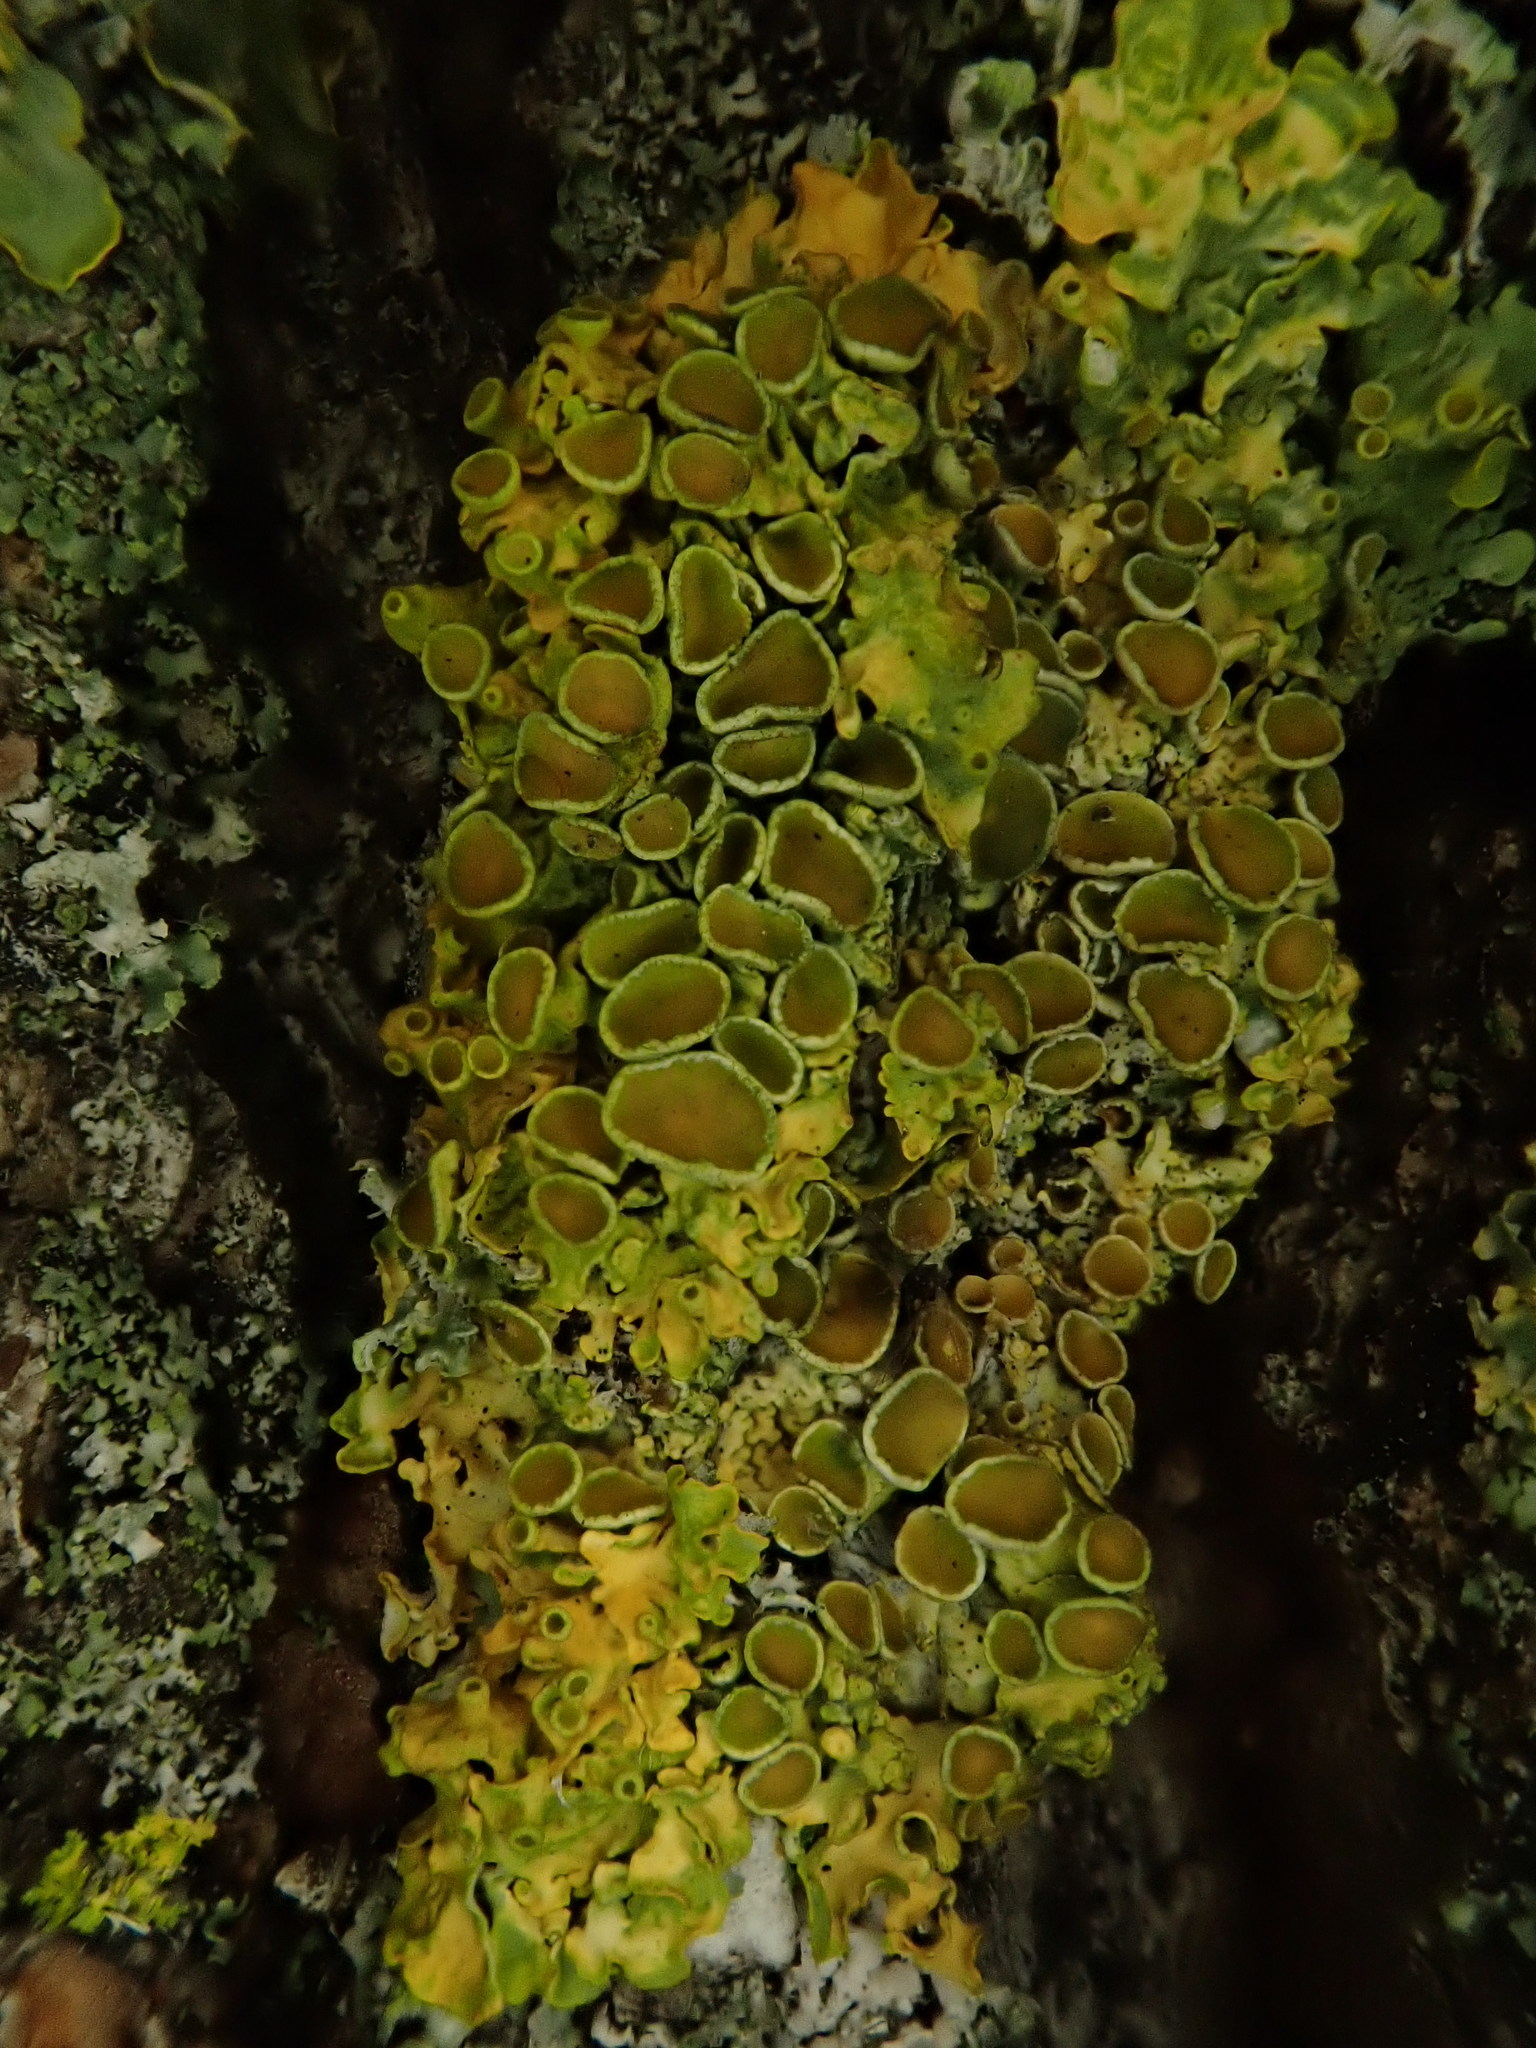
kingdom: Fungi
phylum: Ascomycota
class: Lecanoromycetes
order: Teloschistales
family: Teloschistaceae
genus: Xanthoria
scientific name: Xanthoria parietina
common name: Common orange lichen
